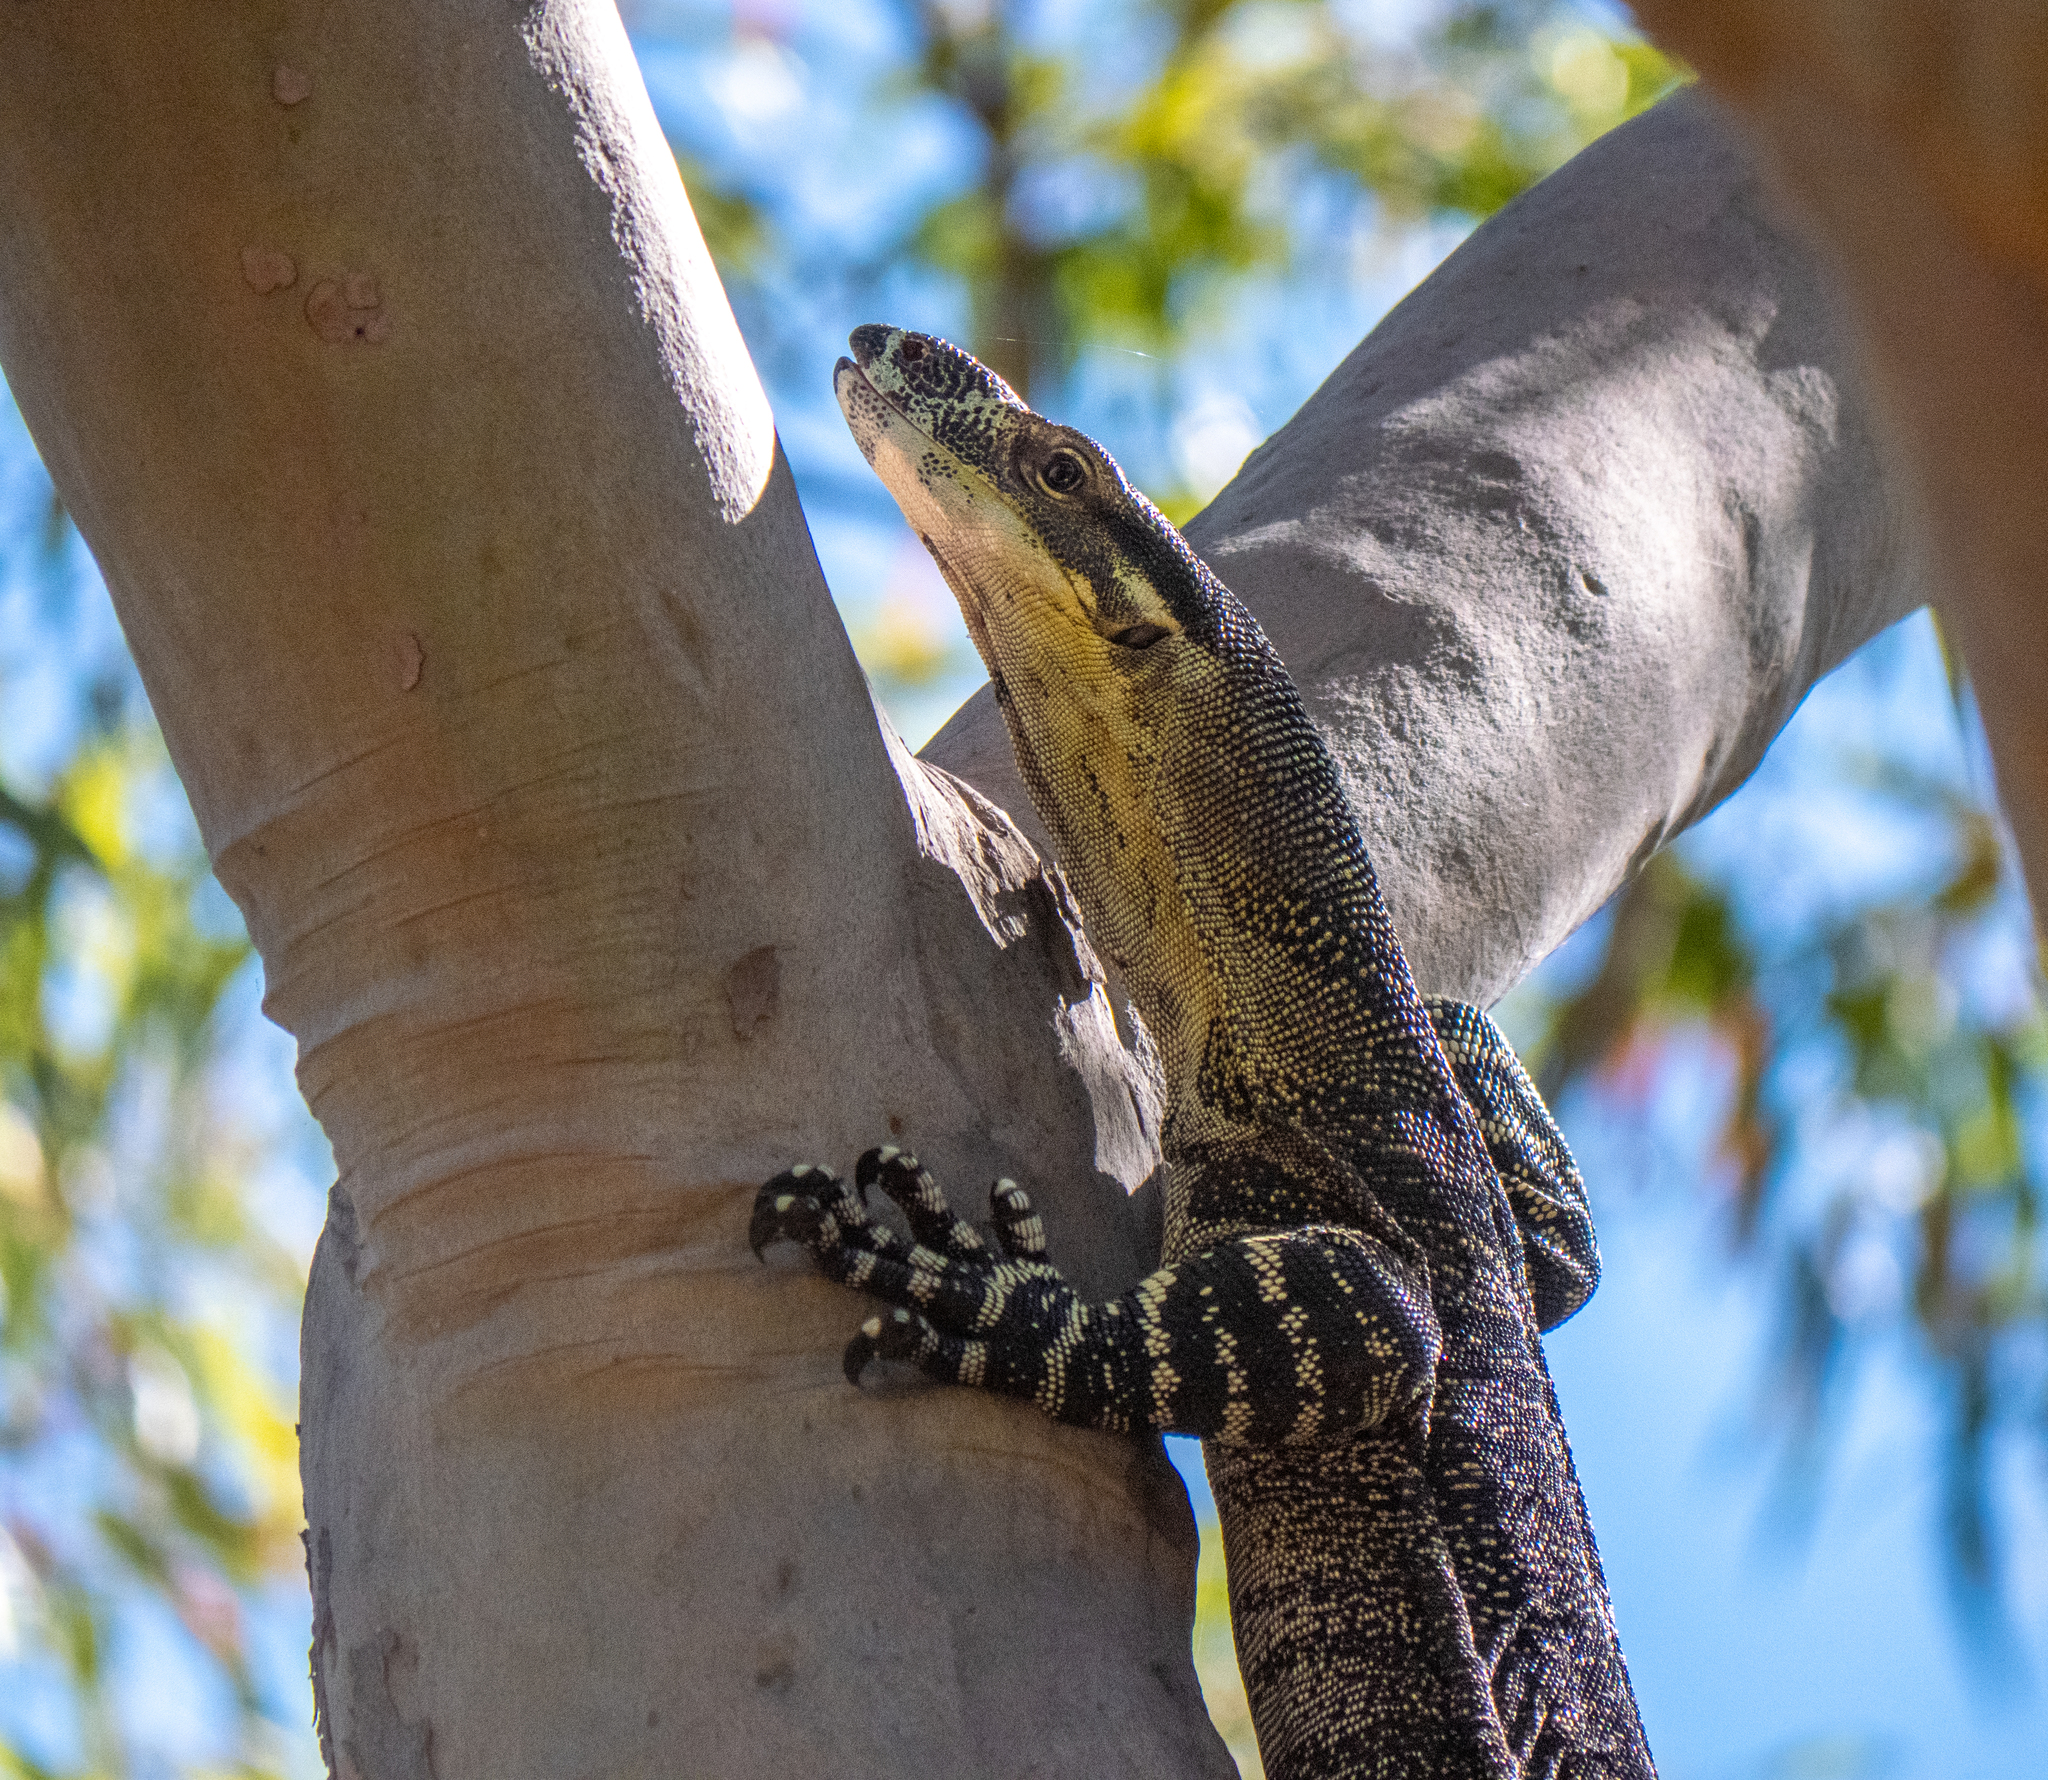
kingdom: Animalia
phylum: Chordata
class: Squamata
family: Varanidae
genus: Varanus
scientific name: Varanus varius
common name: Lace monitor
